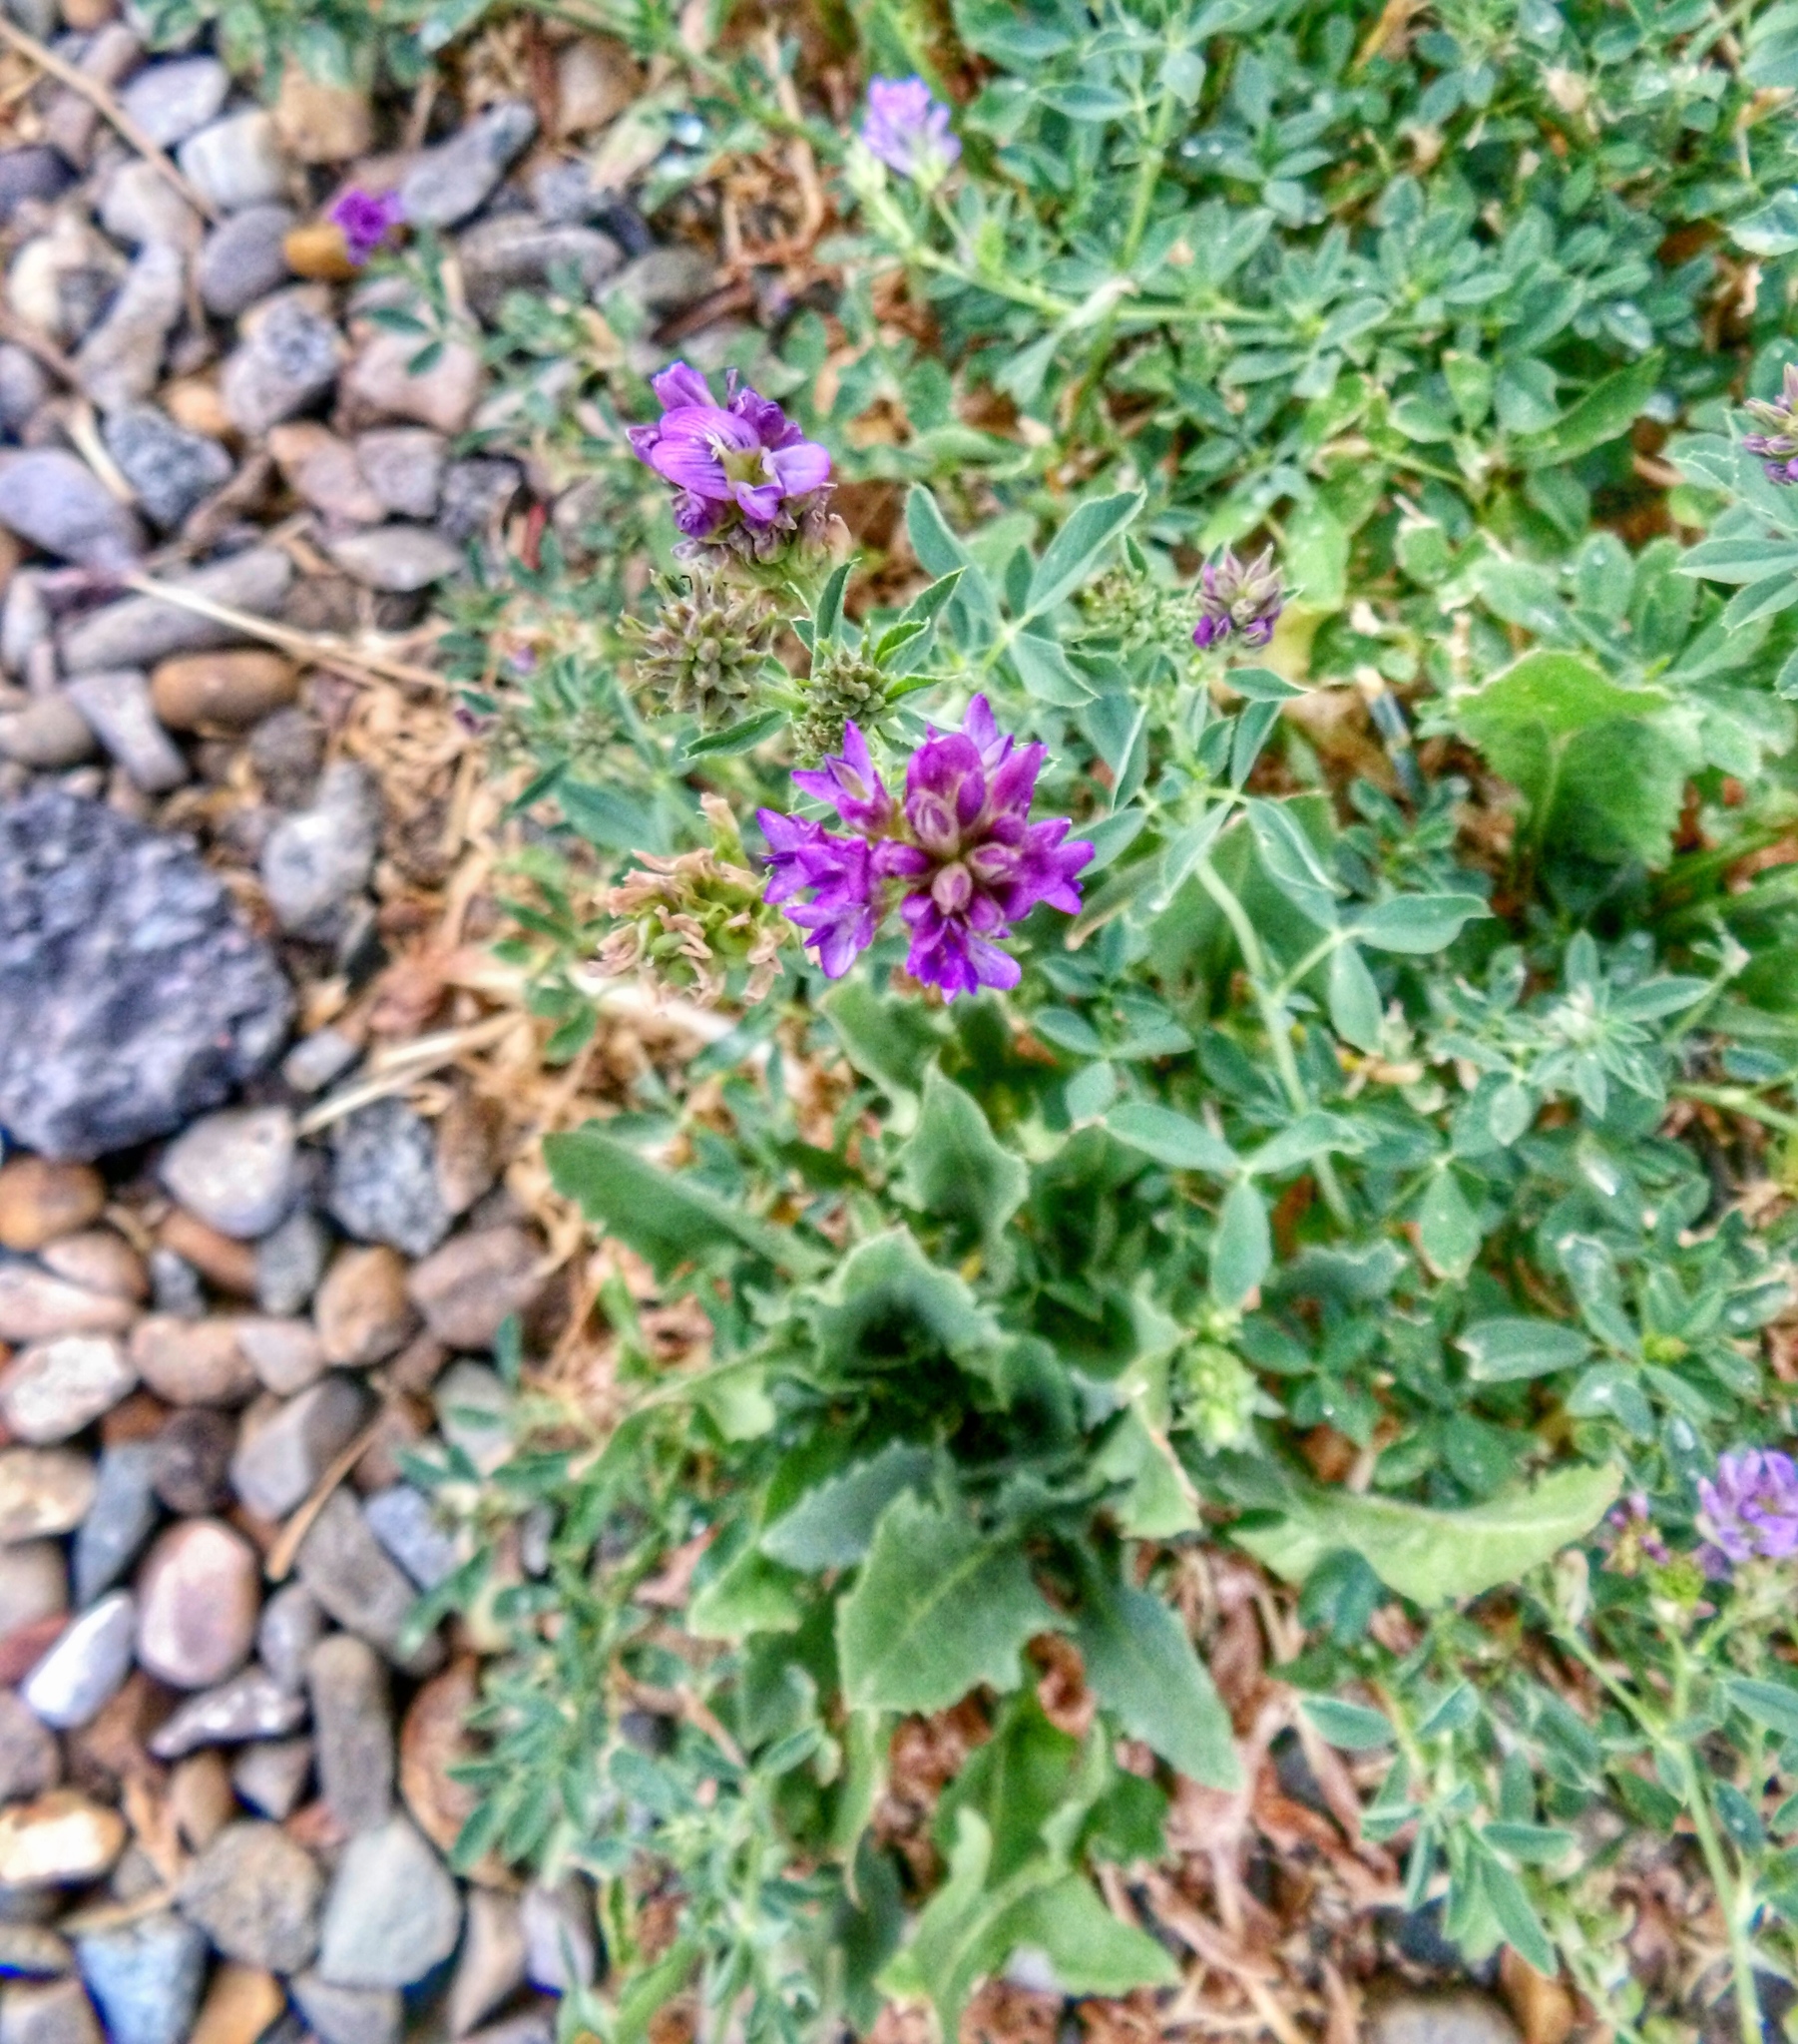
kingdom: Plantae
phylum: Tracheophyta
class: Magnoliopsida
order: Fabales
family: Fabaceae
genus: Medicago
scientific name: Medicago sativa
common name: Alfalfa
